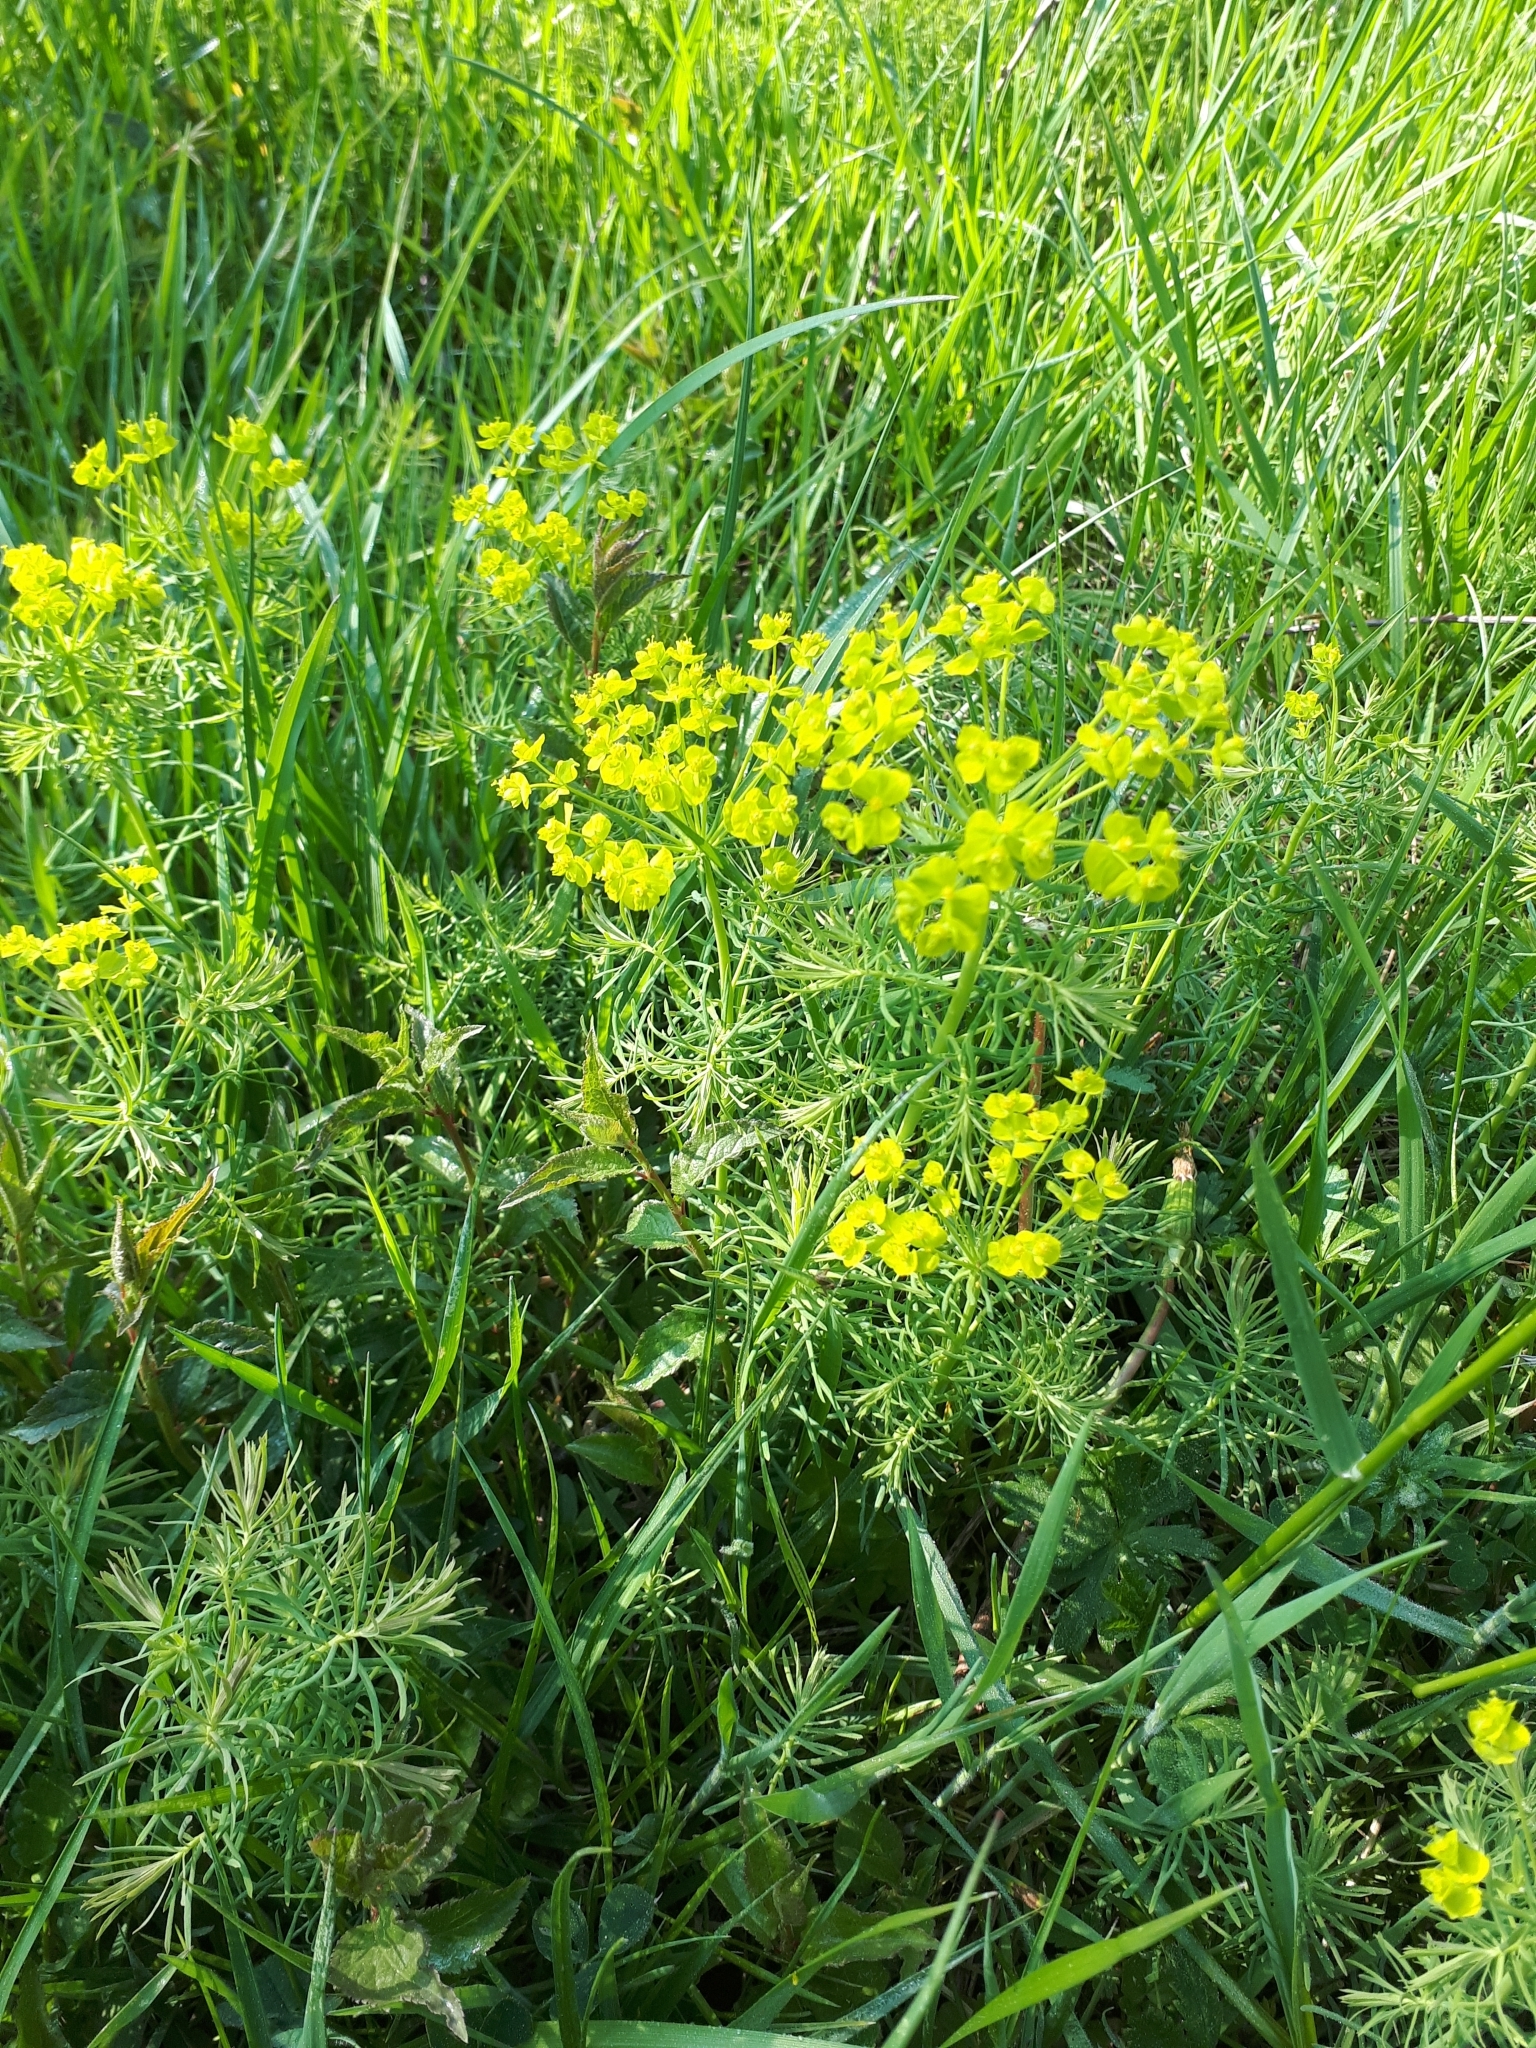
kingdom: Plantae
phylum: Tracheophyta
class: Magnoliopsida
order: Malpighiales
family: Euphorbiaceae
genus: Euphorbia
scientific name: Euphorbia cyparissias
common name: Cypress spurge
